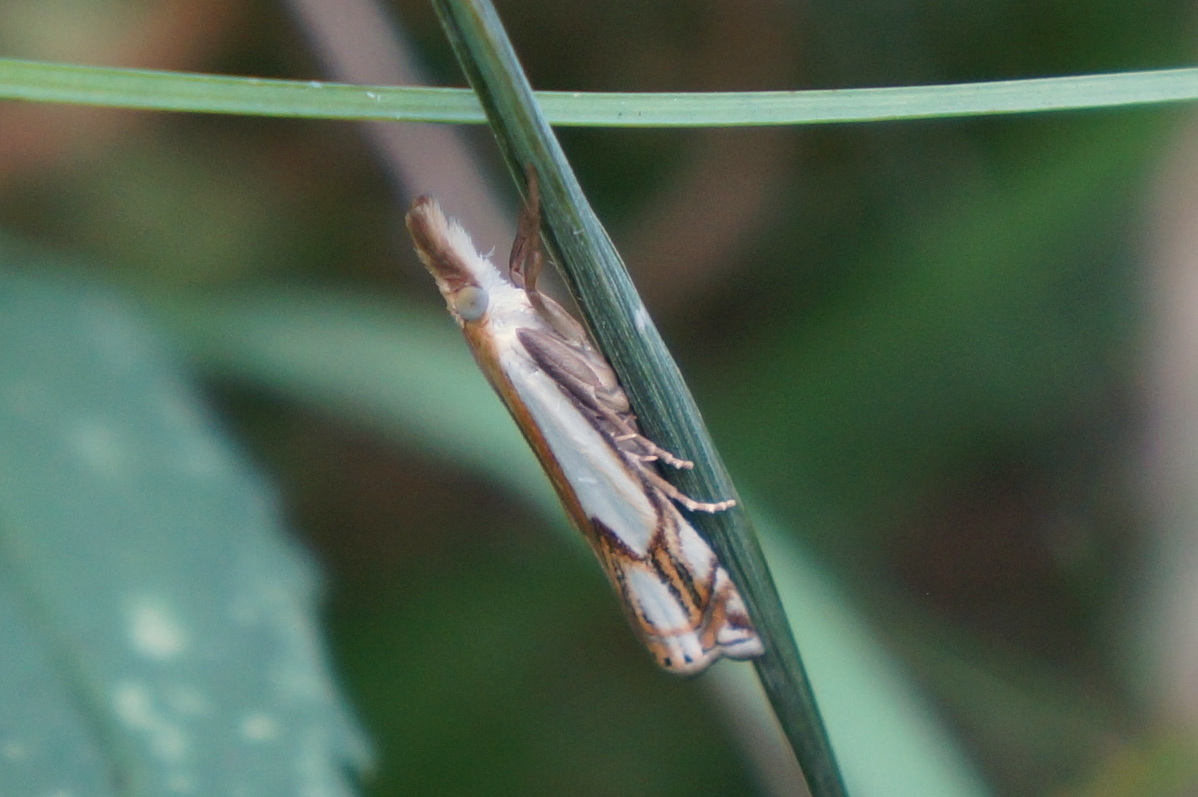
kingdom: Animalia
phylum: Arthropoda
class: Insecta
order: Lepidoptera
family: Crambidae
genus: Crambus
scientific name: Crambus agitatellus
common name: Double-banded grass-veneer
